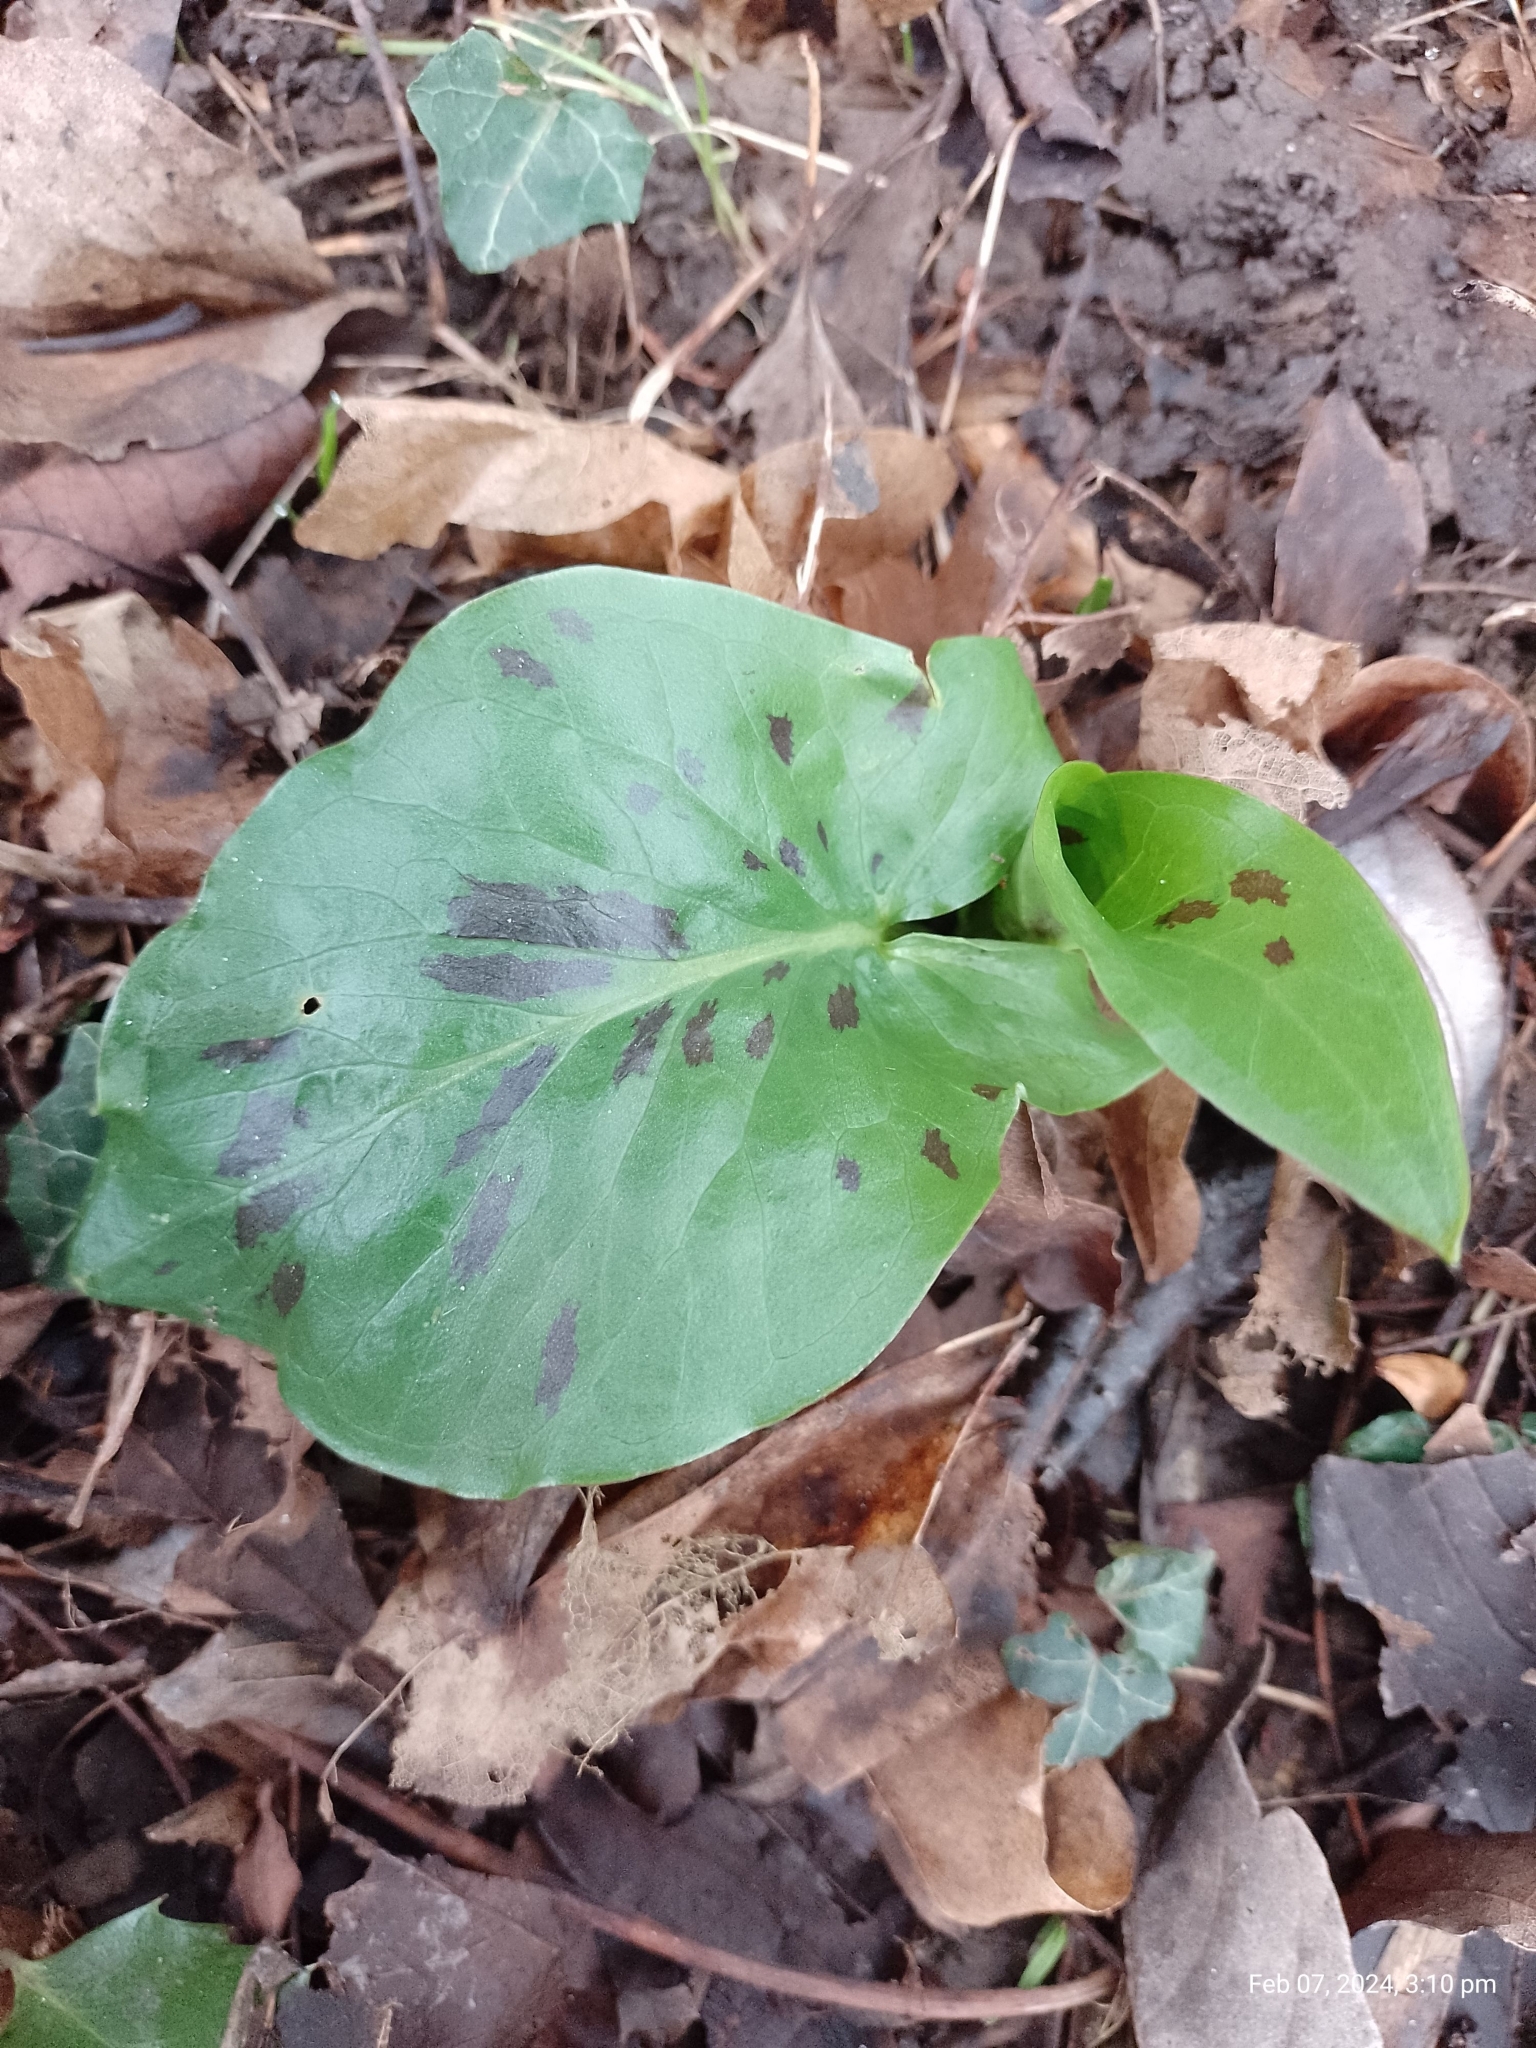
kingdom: Plantae
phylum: Tracheophyta
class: Liliopsida
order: Alismatales
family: Araceae
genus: Arum
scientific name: Arum maculatum
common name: Lords-and-ladies
